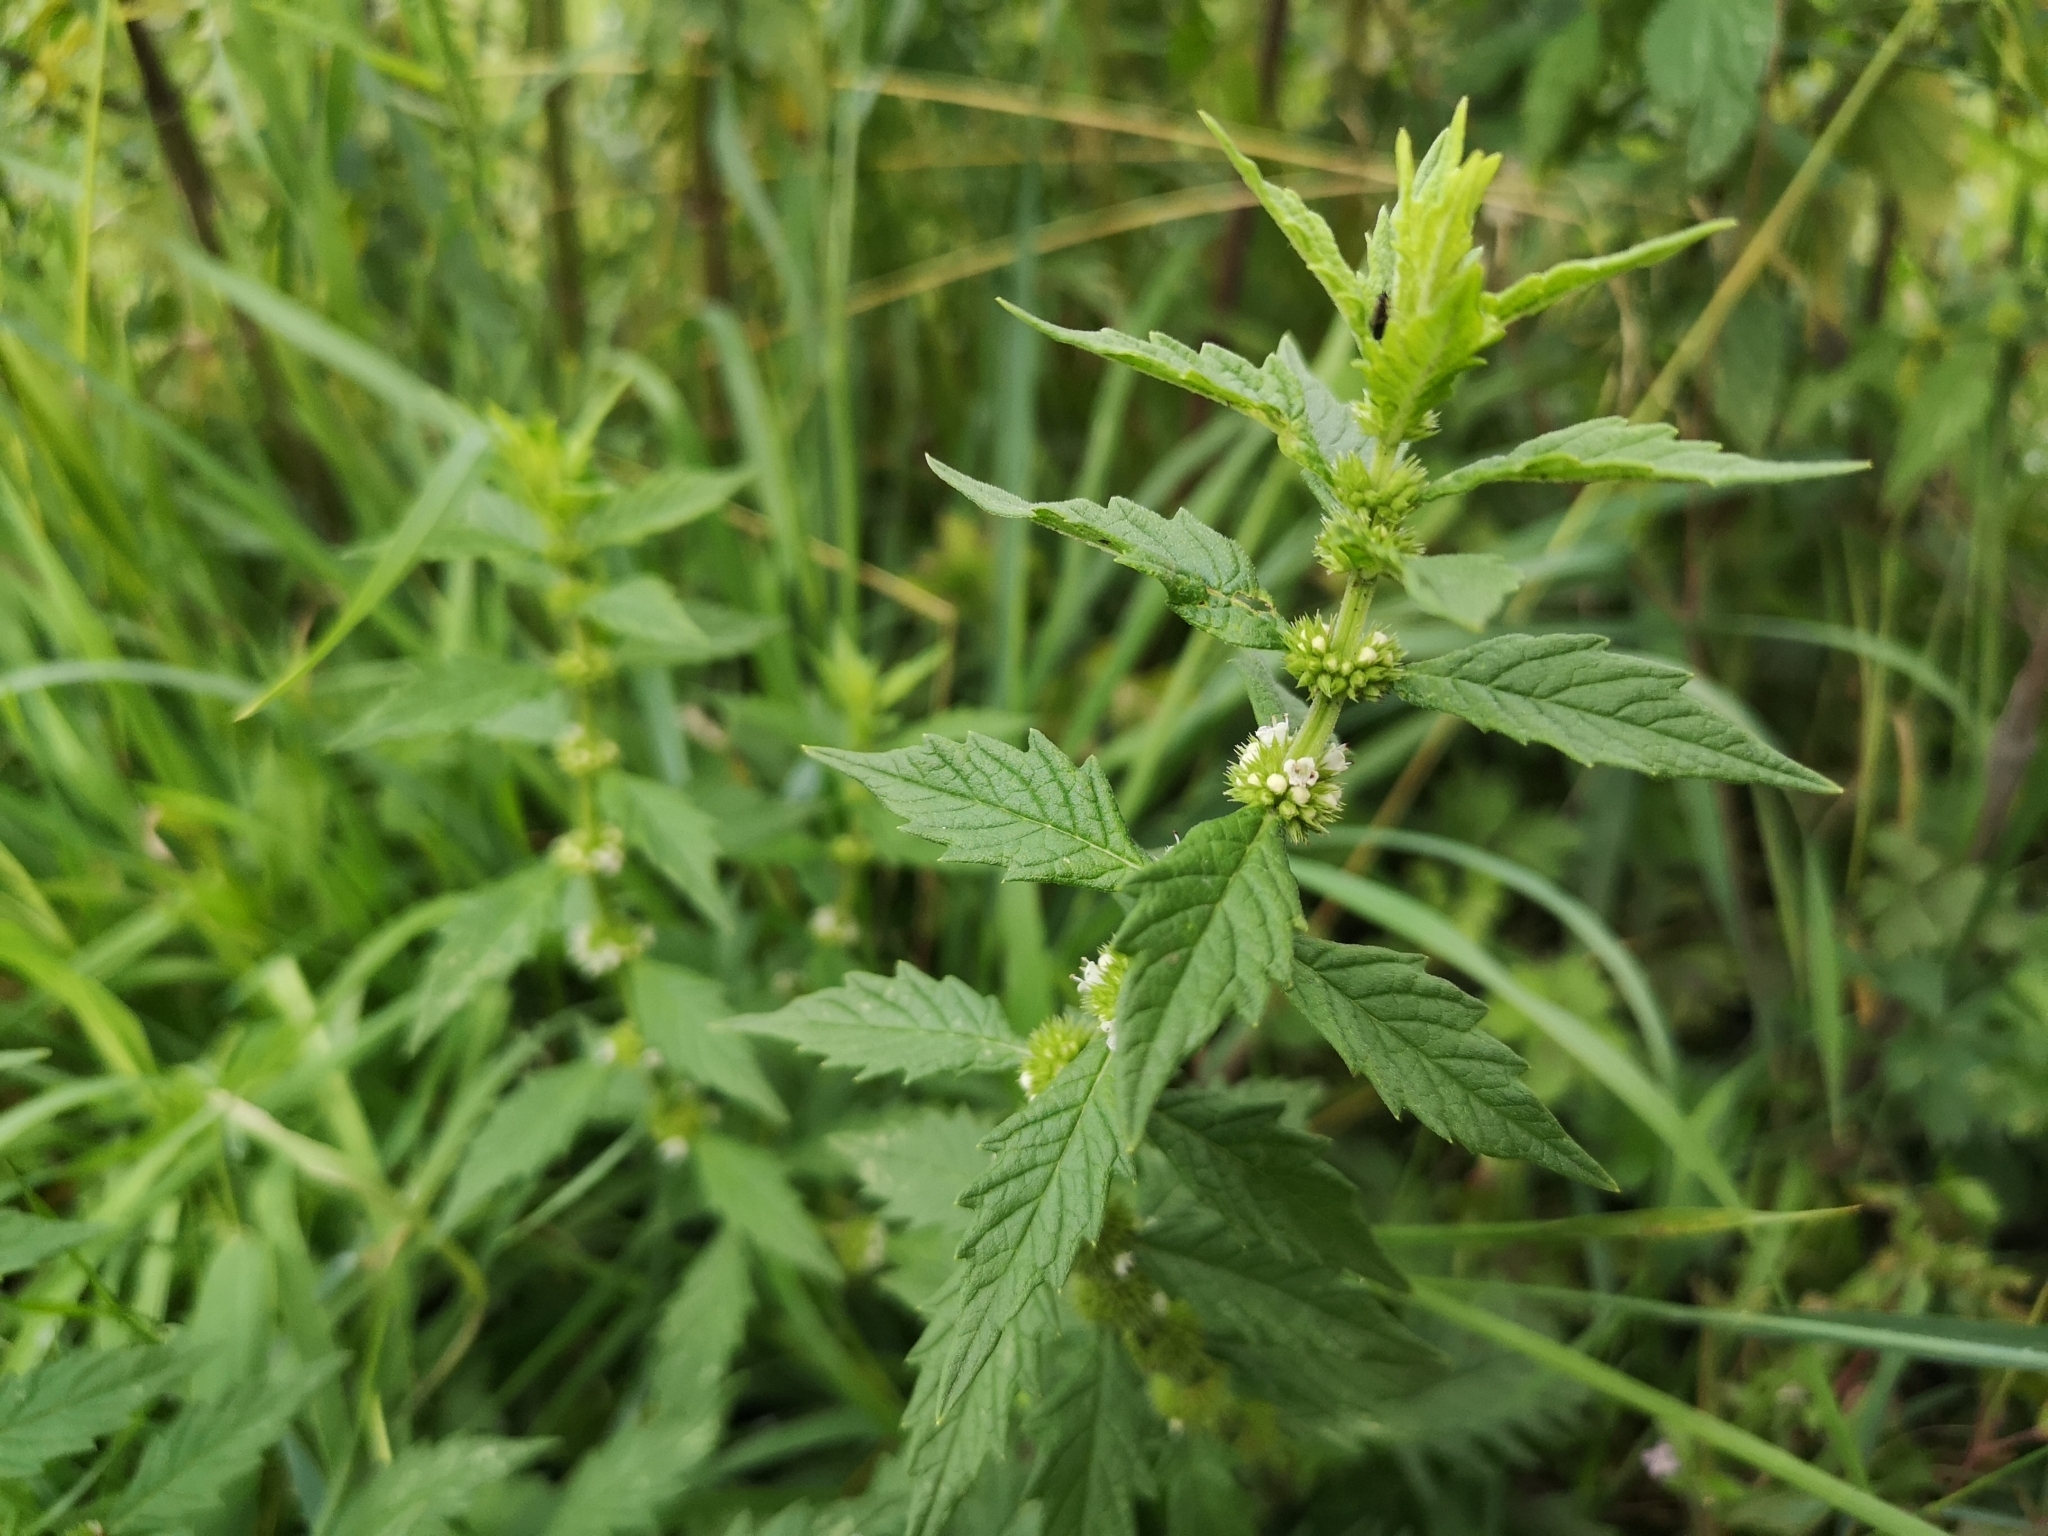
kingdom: Plantae
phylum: Tracheophyta
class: Magnoliopsida
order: Lamiales
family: Lamiaceae
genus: Lycopus
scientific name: Lycopus europaeus
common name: European bugleweed
